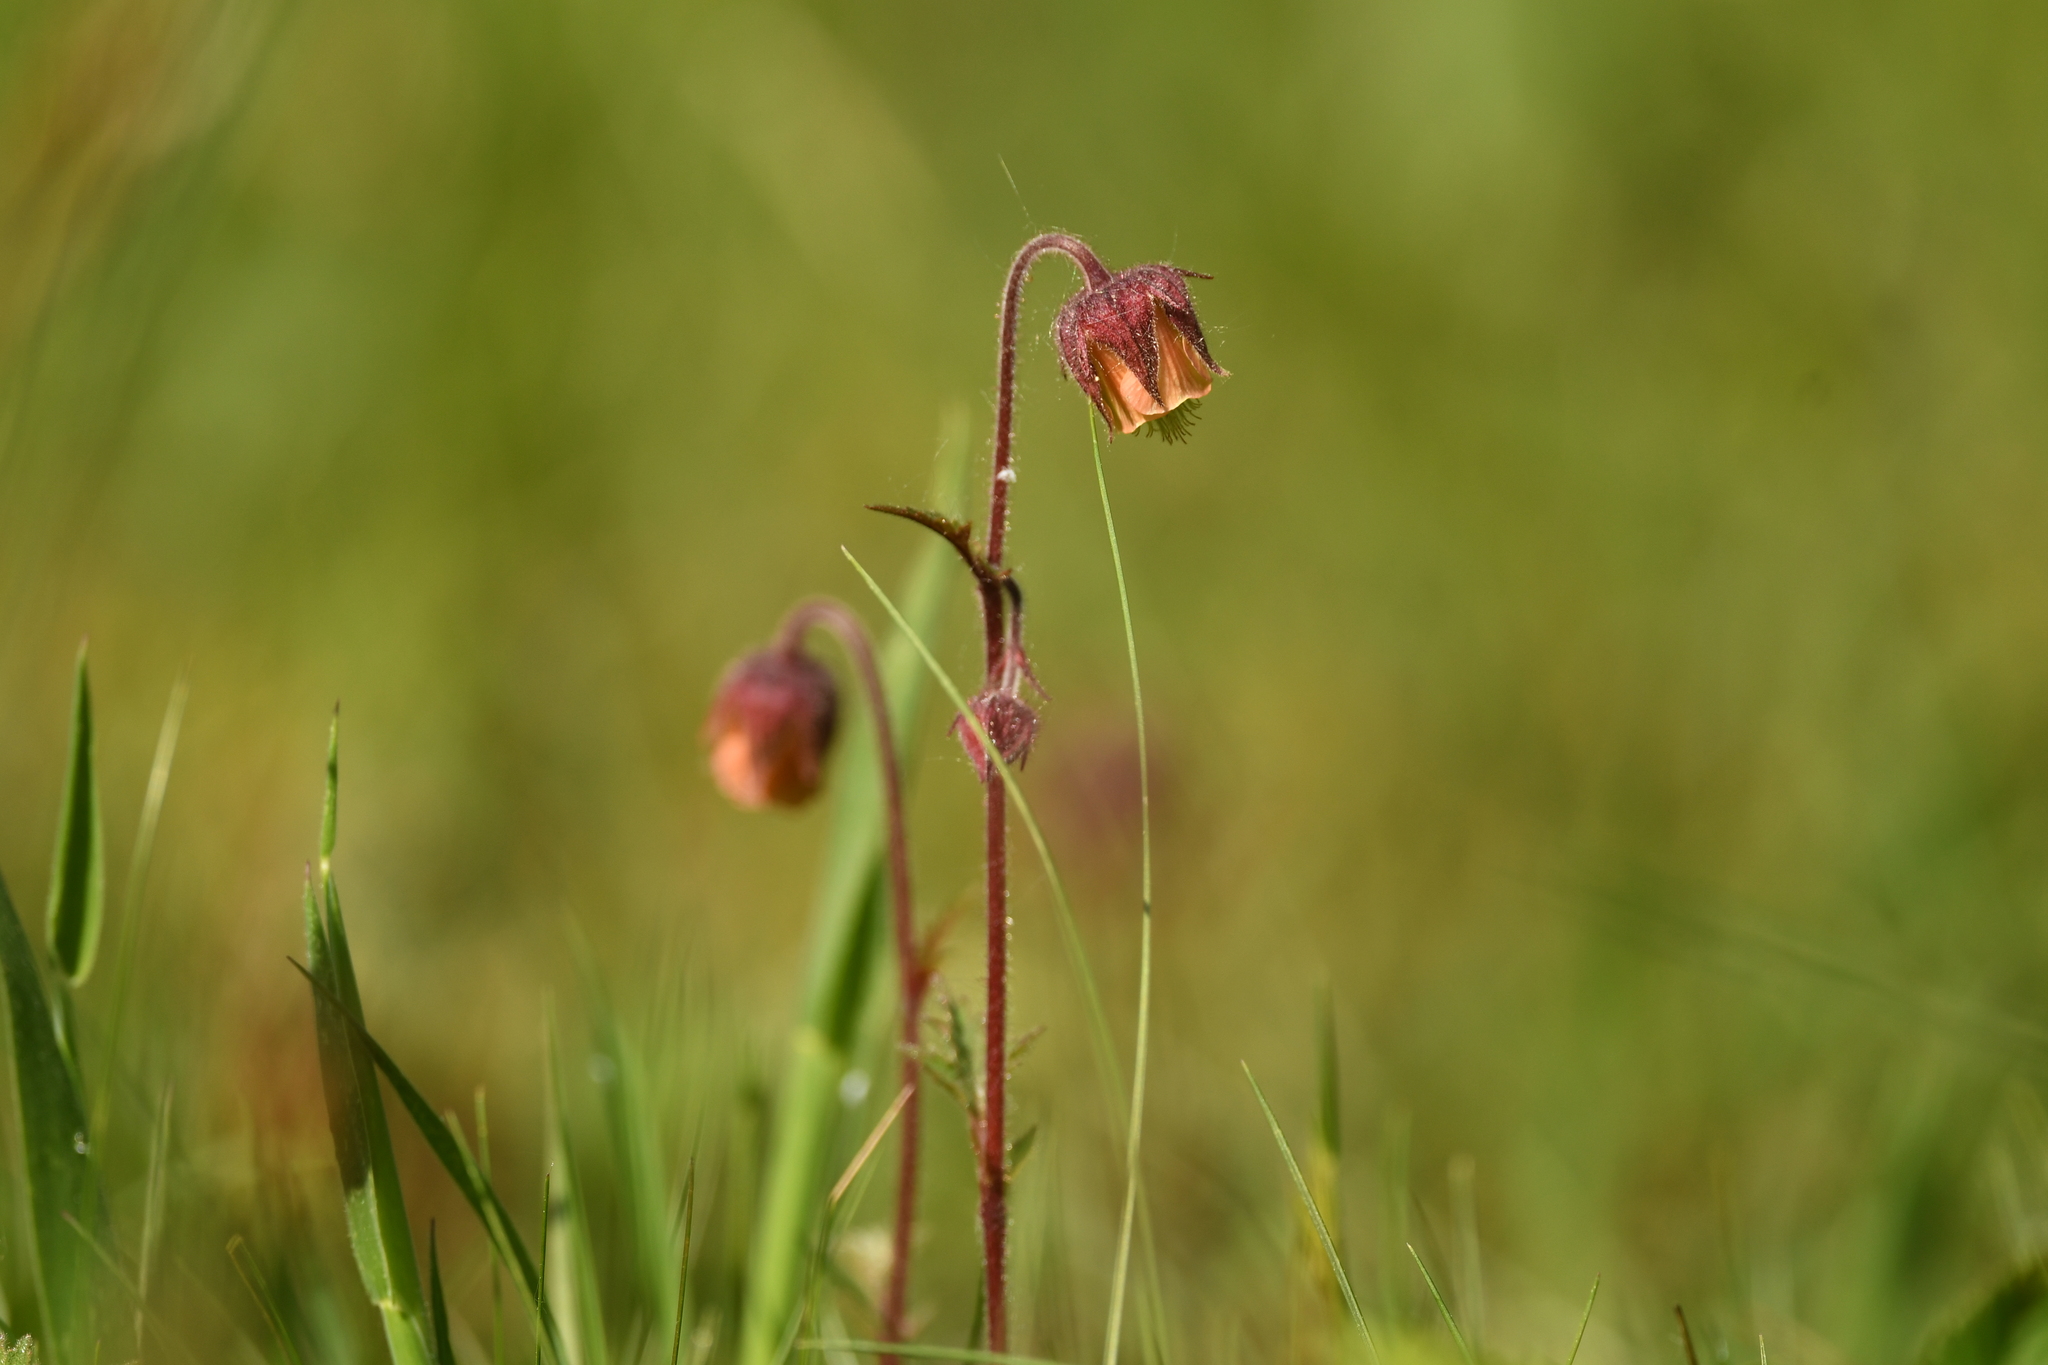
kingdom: Plantae
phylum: Tracheophyta
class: Magnoliopsida
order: Rosales
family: Rosaceae
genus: Geum
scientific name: Geum rivale
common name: Water avens
